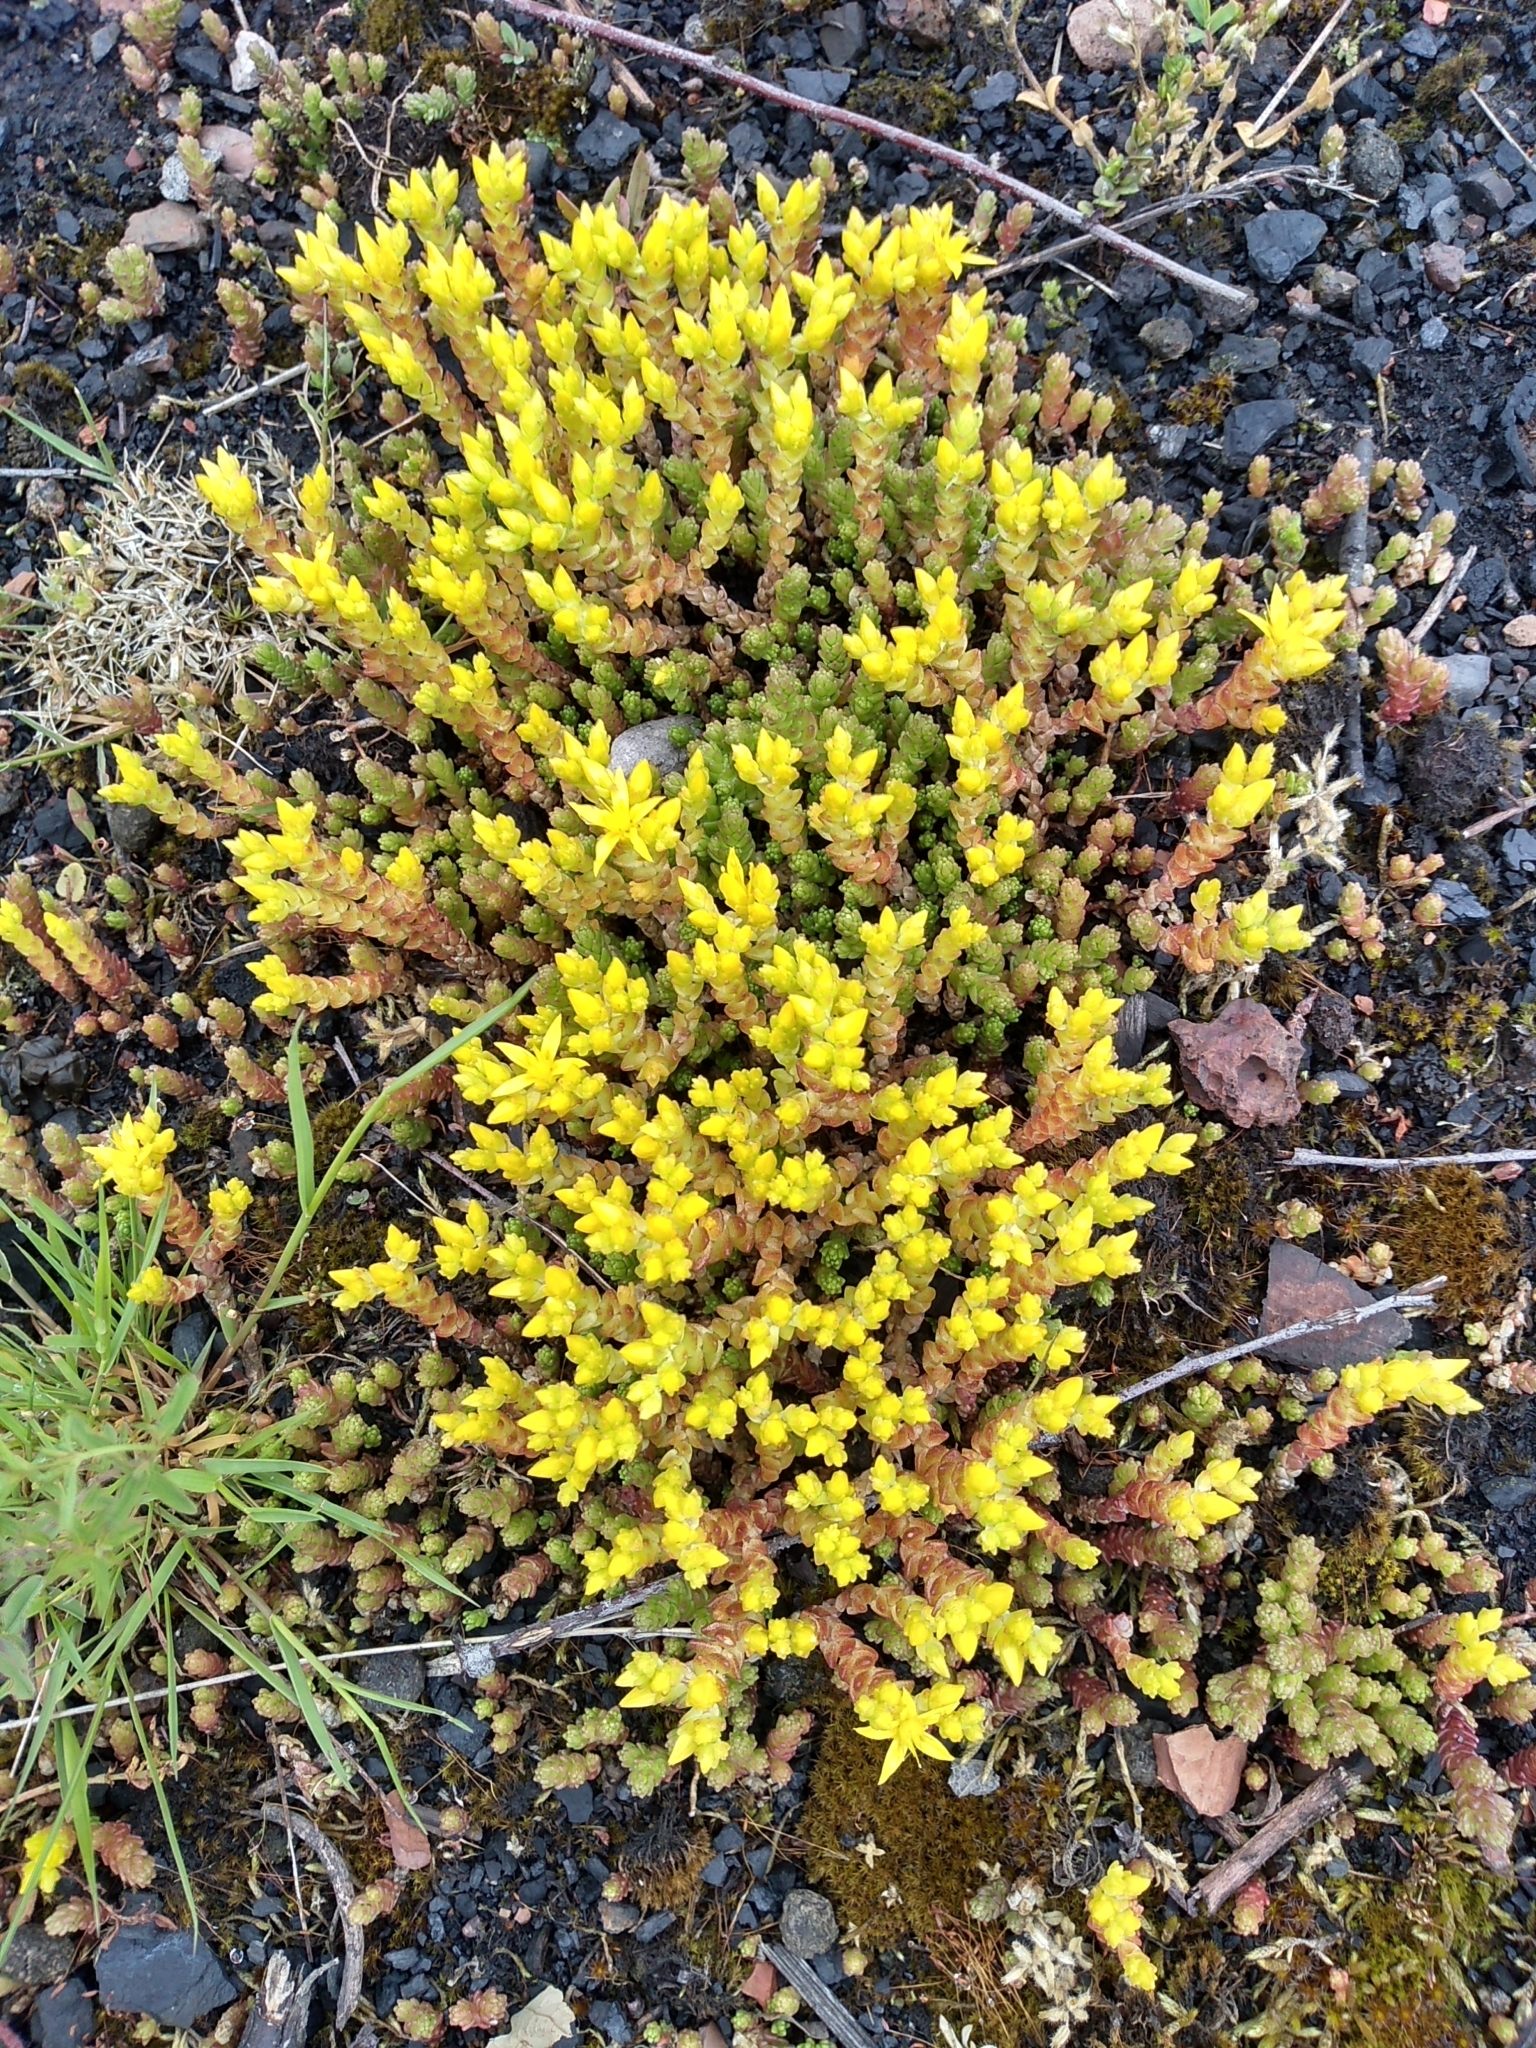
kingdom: Plantae
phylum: Tracheophyta
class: Magnoliopsida
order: Saxifragales
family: Crassulaceae
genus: Sedum
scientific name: Sedum acre
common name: Biting stonecrop
